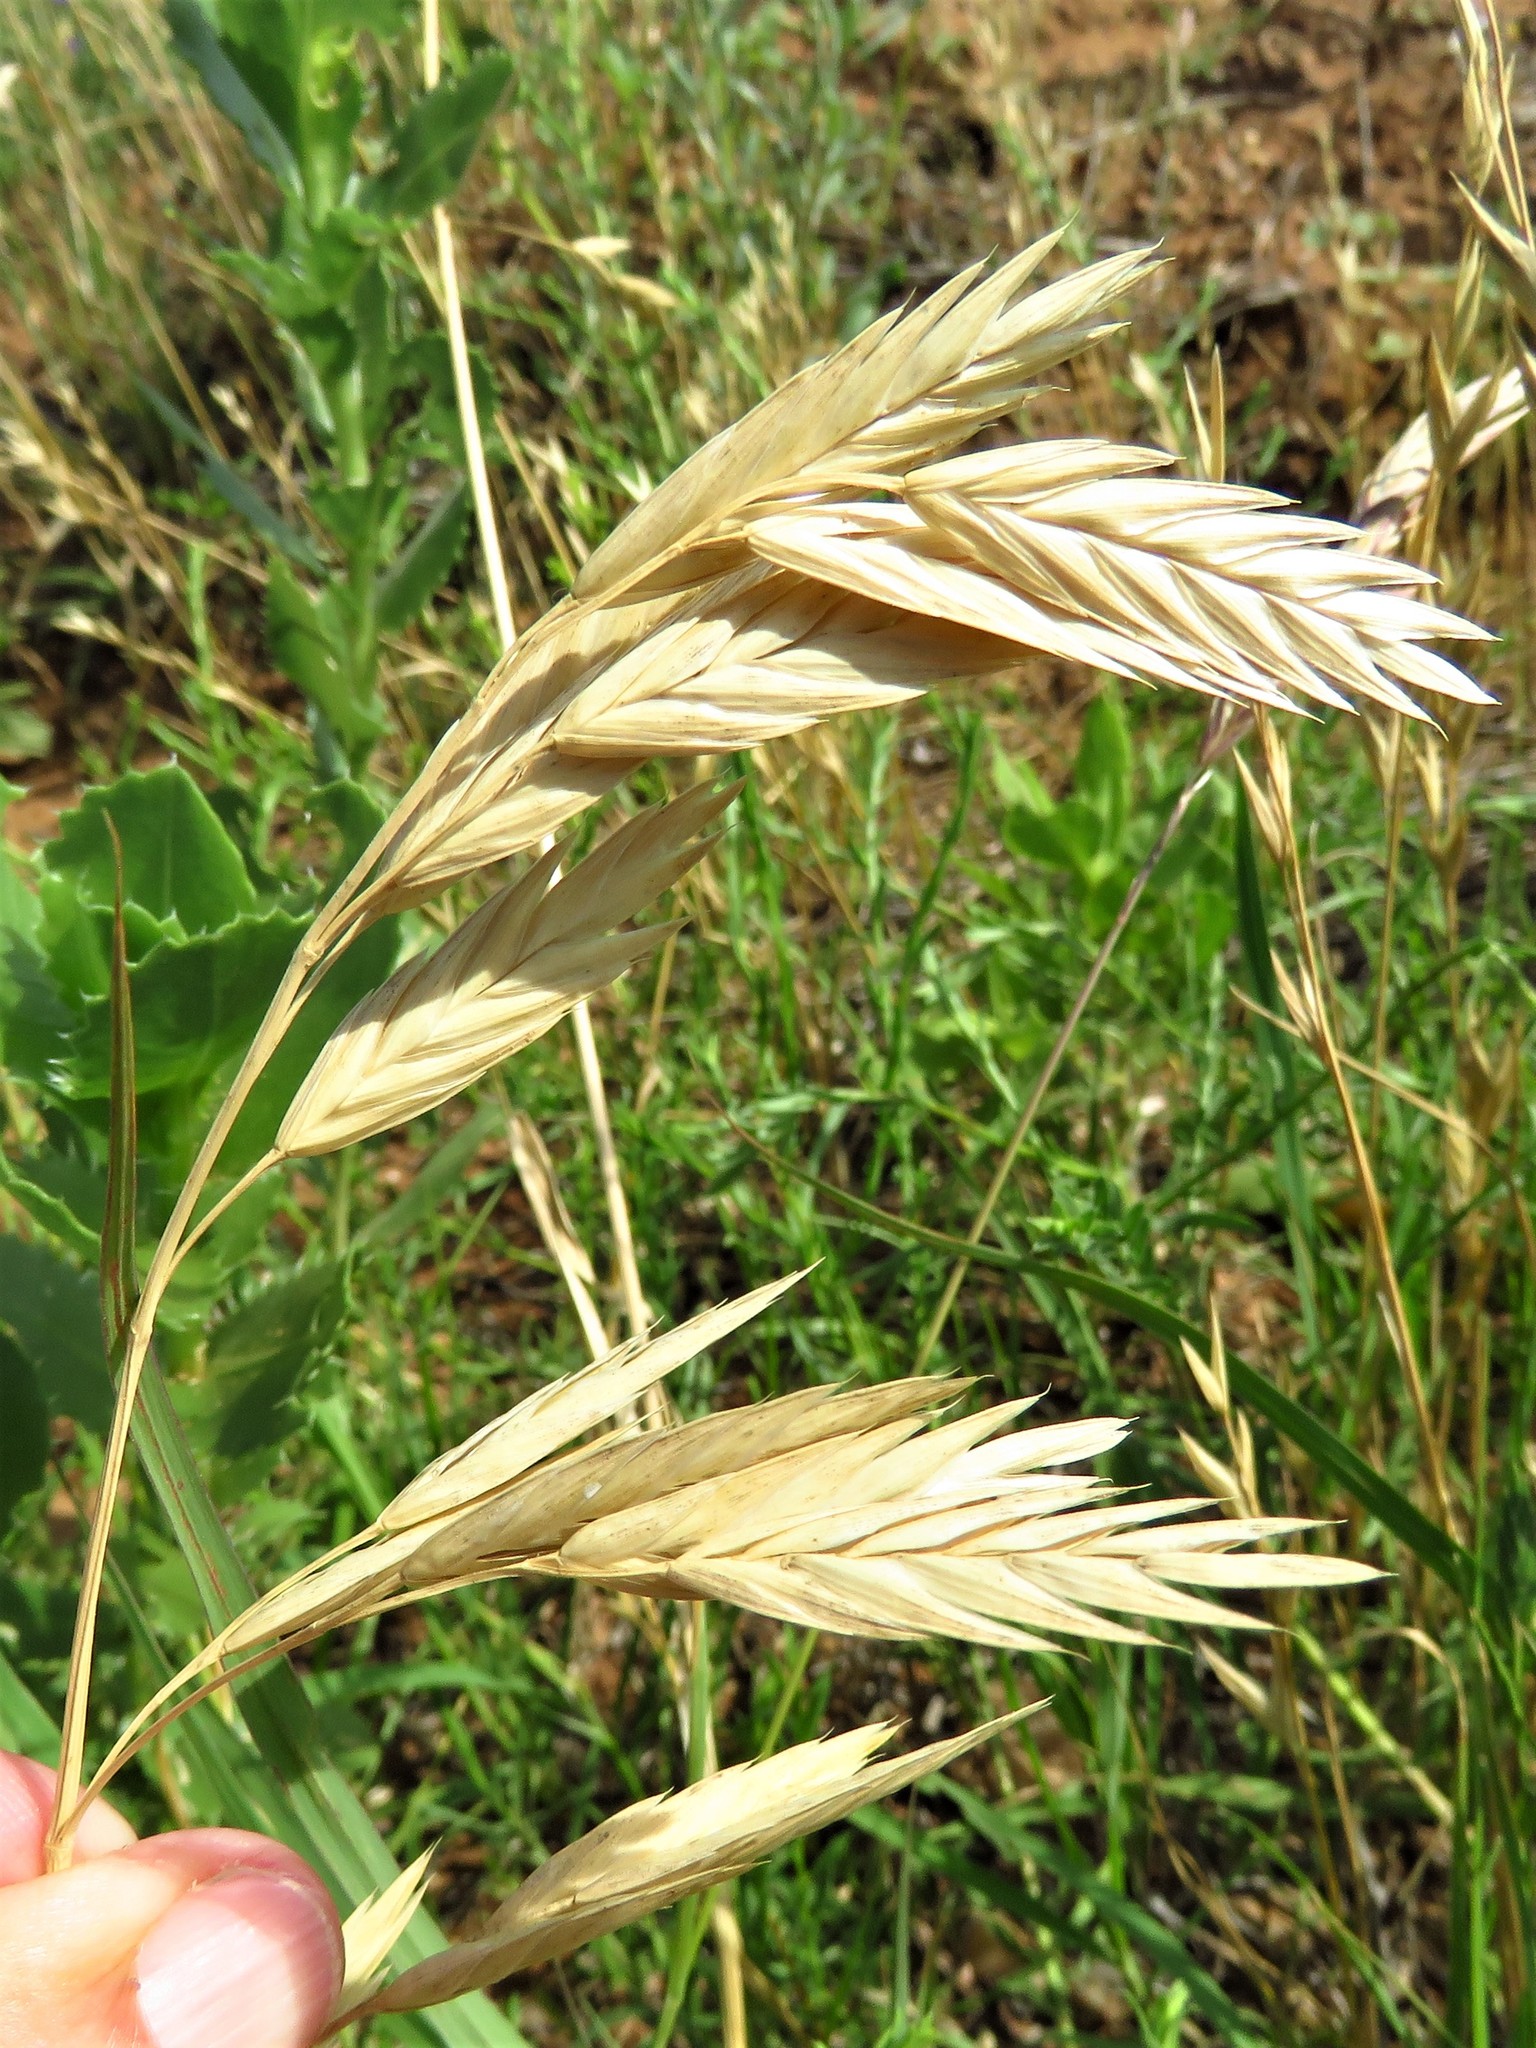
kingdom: Plantae
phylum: Tracheophyta
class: Liliopsida
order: Poales
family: Poaceae
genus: Bromus
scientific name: Bromus catharticus
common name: Rescuegrass
